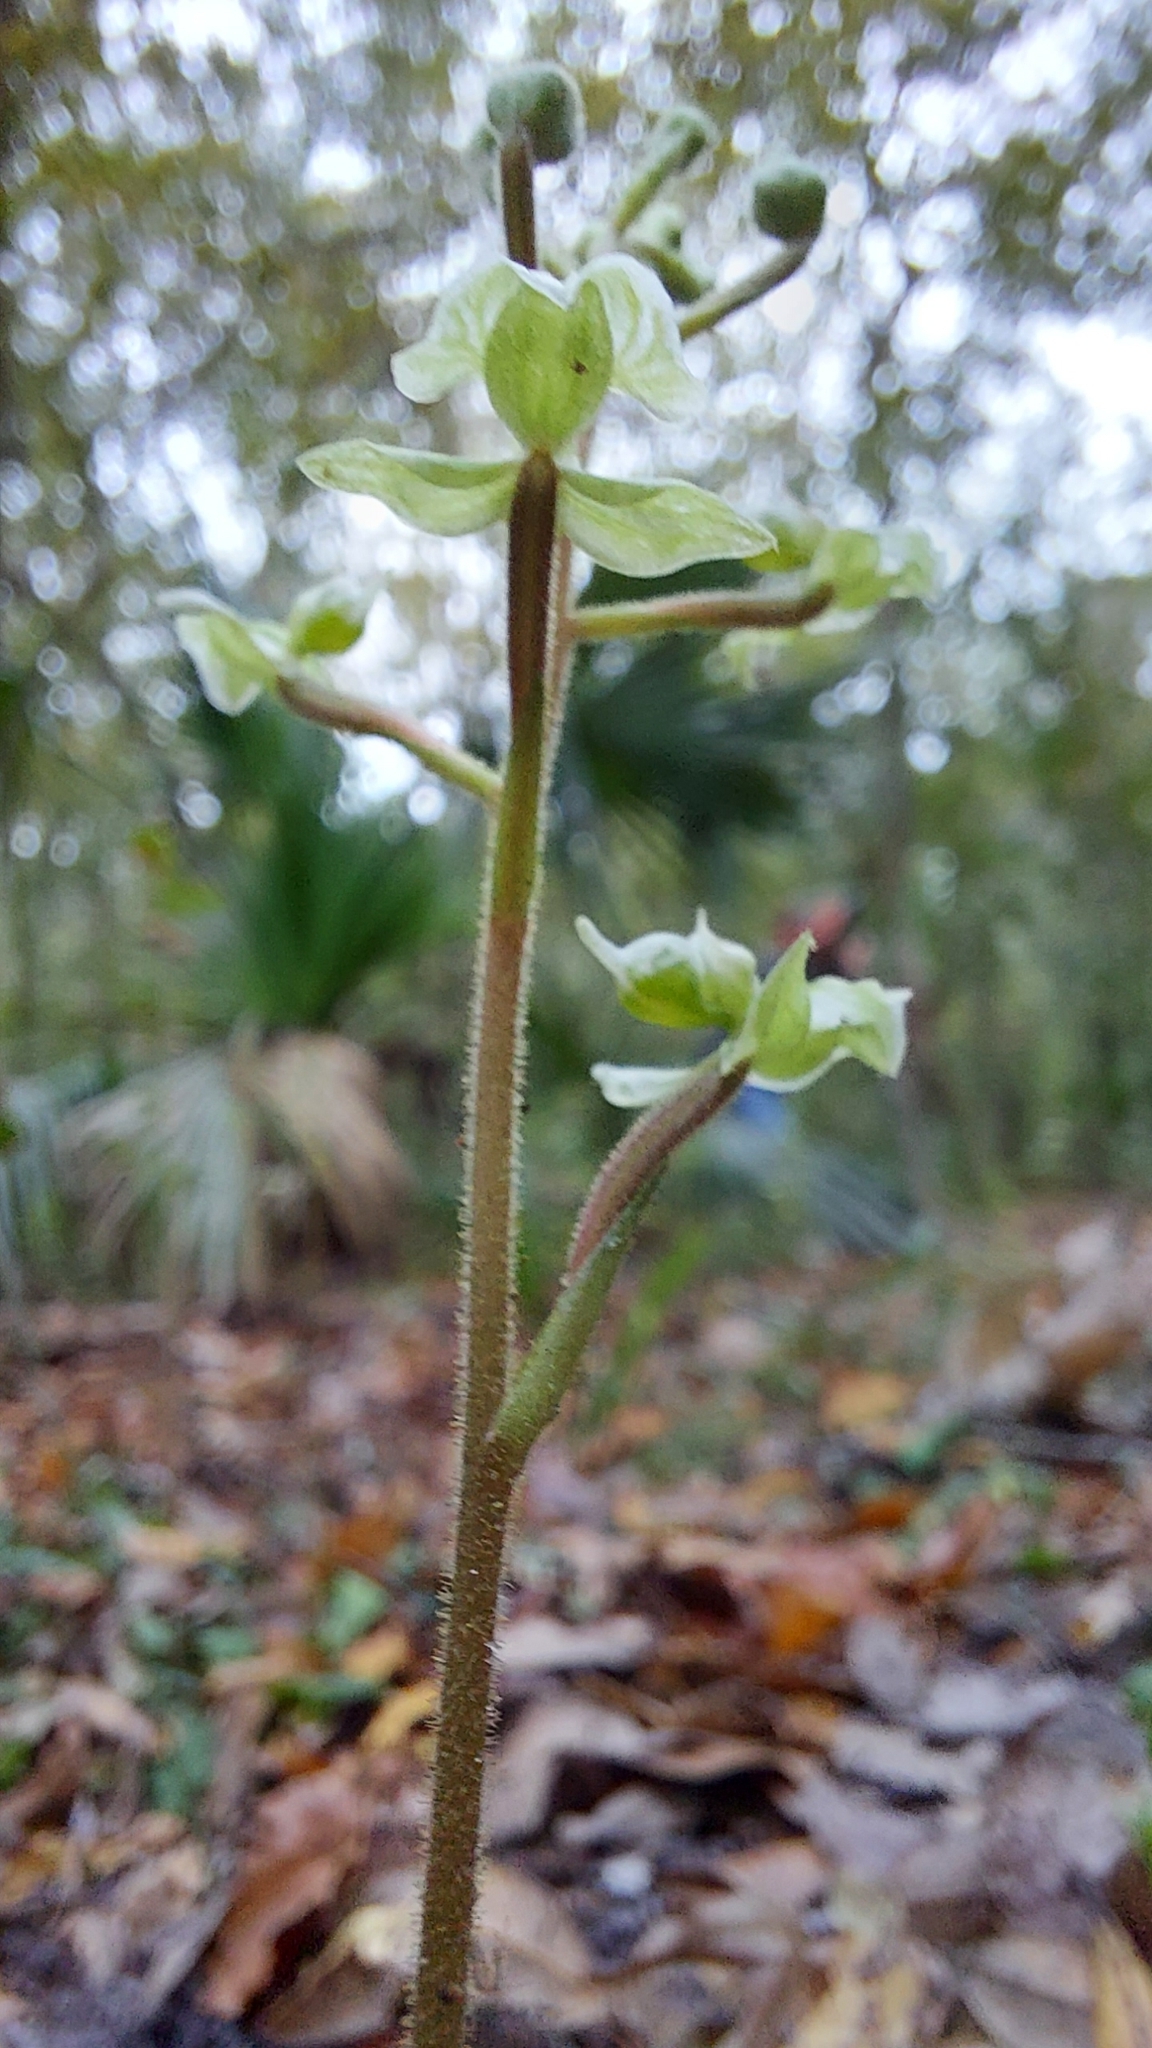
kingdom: Plantae
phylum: Tracheophyta
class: Liliopsida
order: Asparagales
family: Orchidaceae
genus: Ponthieva
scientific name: Ponthieva racemosa
